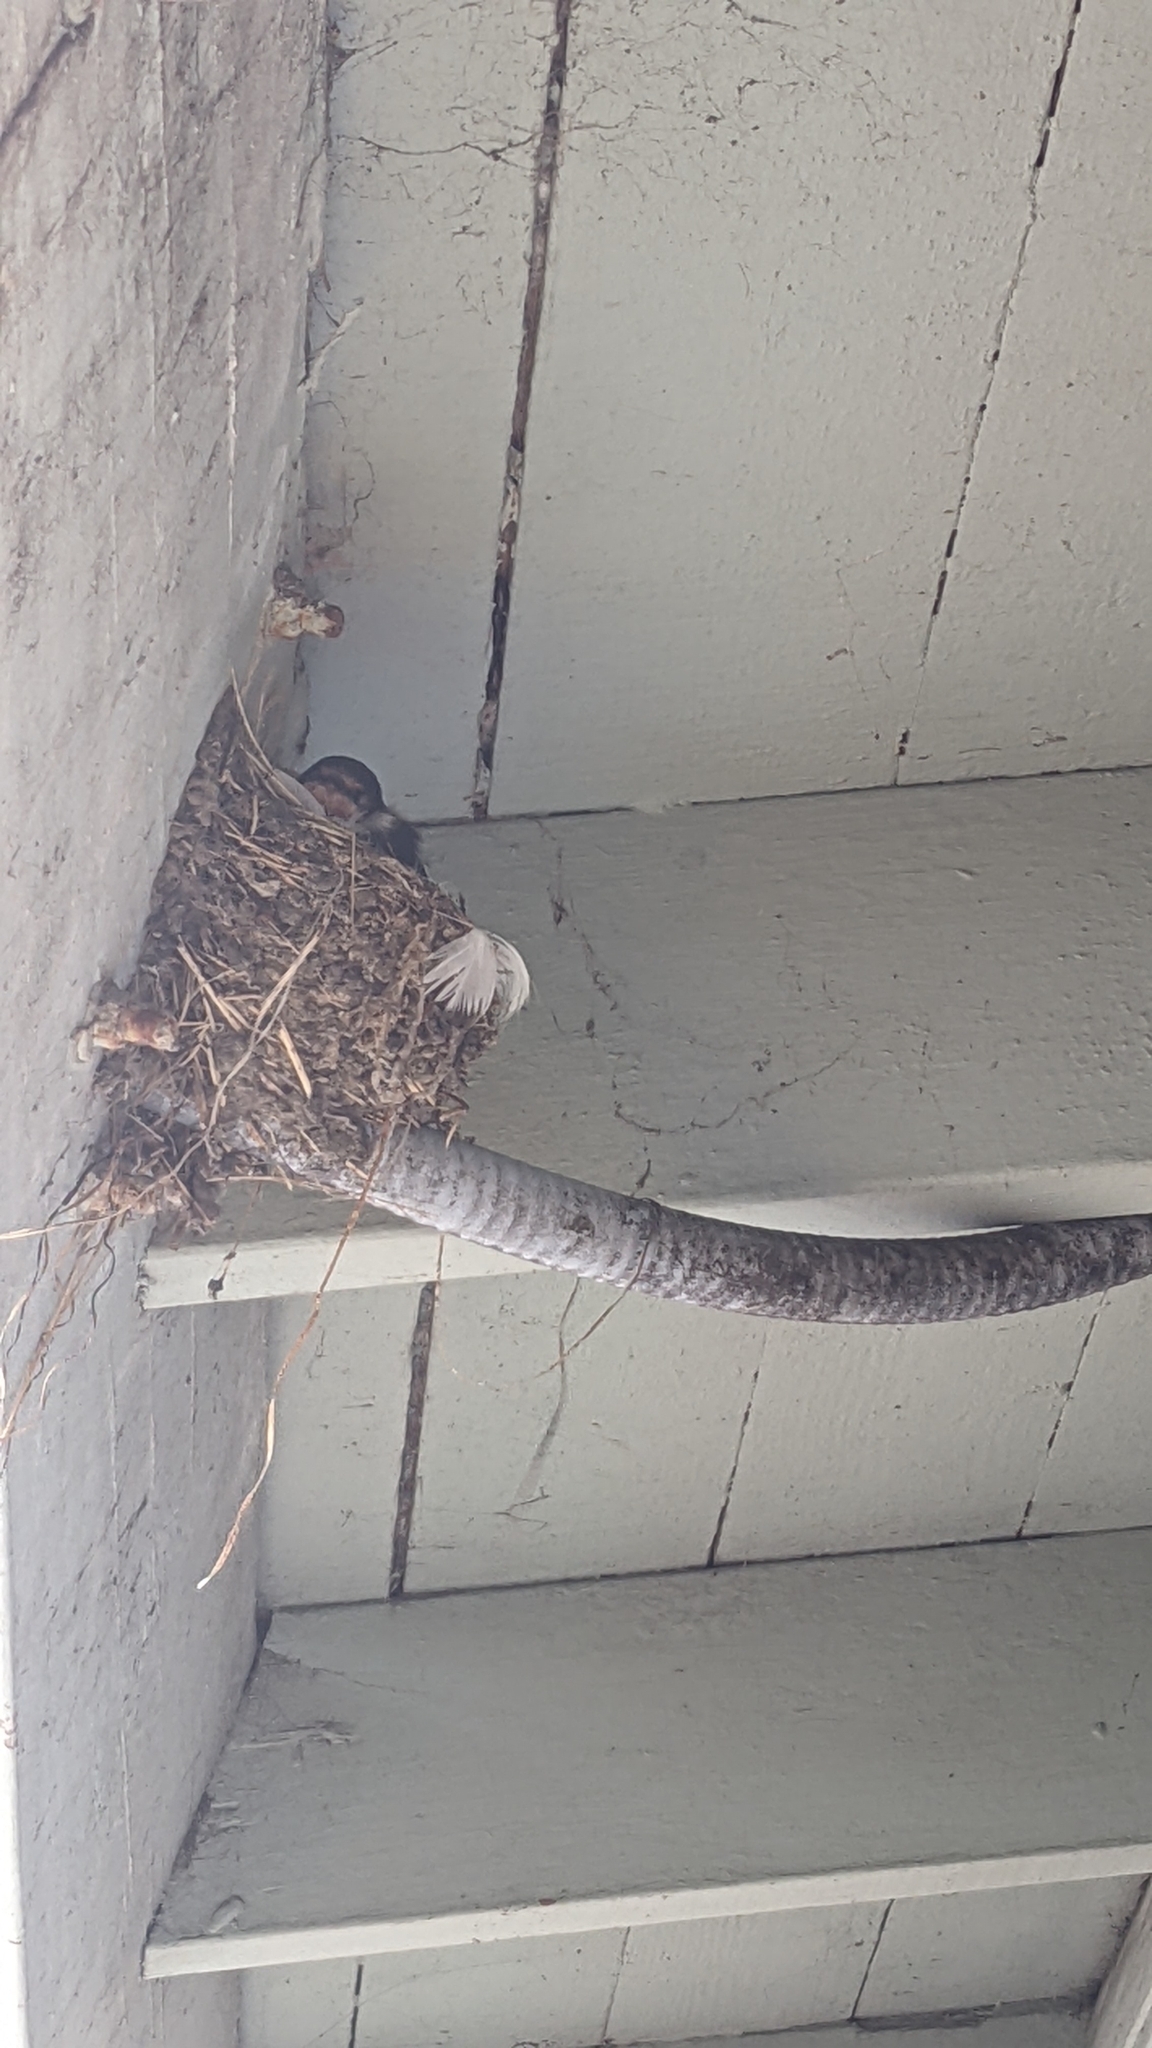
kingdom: Animalia
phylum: Chordata
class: Aves
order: Passeriformes
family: Hirundinidae
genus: Hirundo
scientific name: Hirundo rustica
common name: Barn swallow
